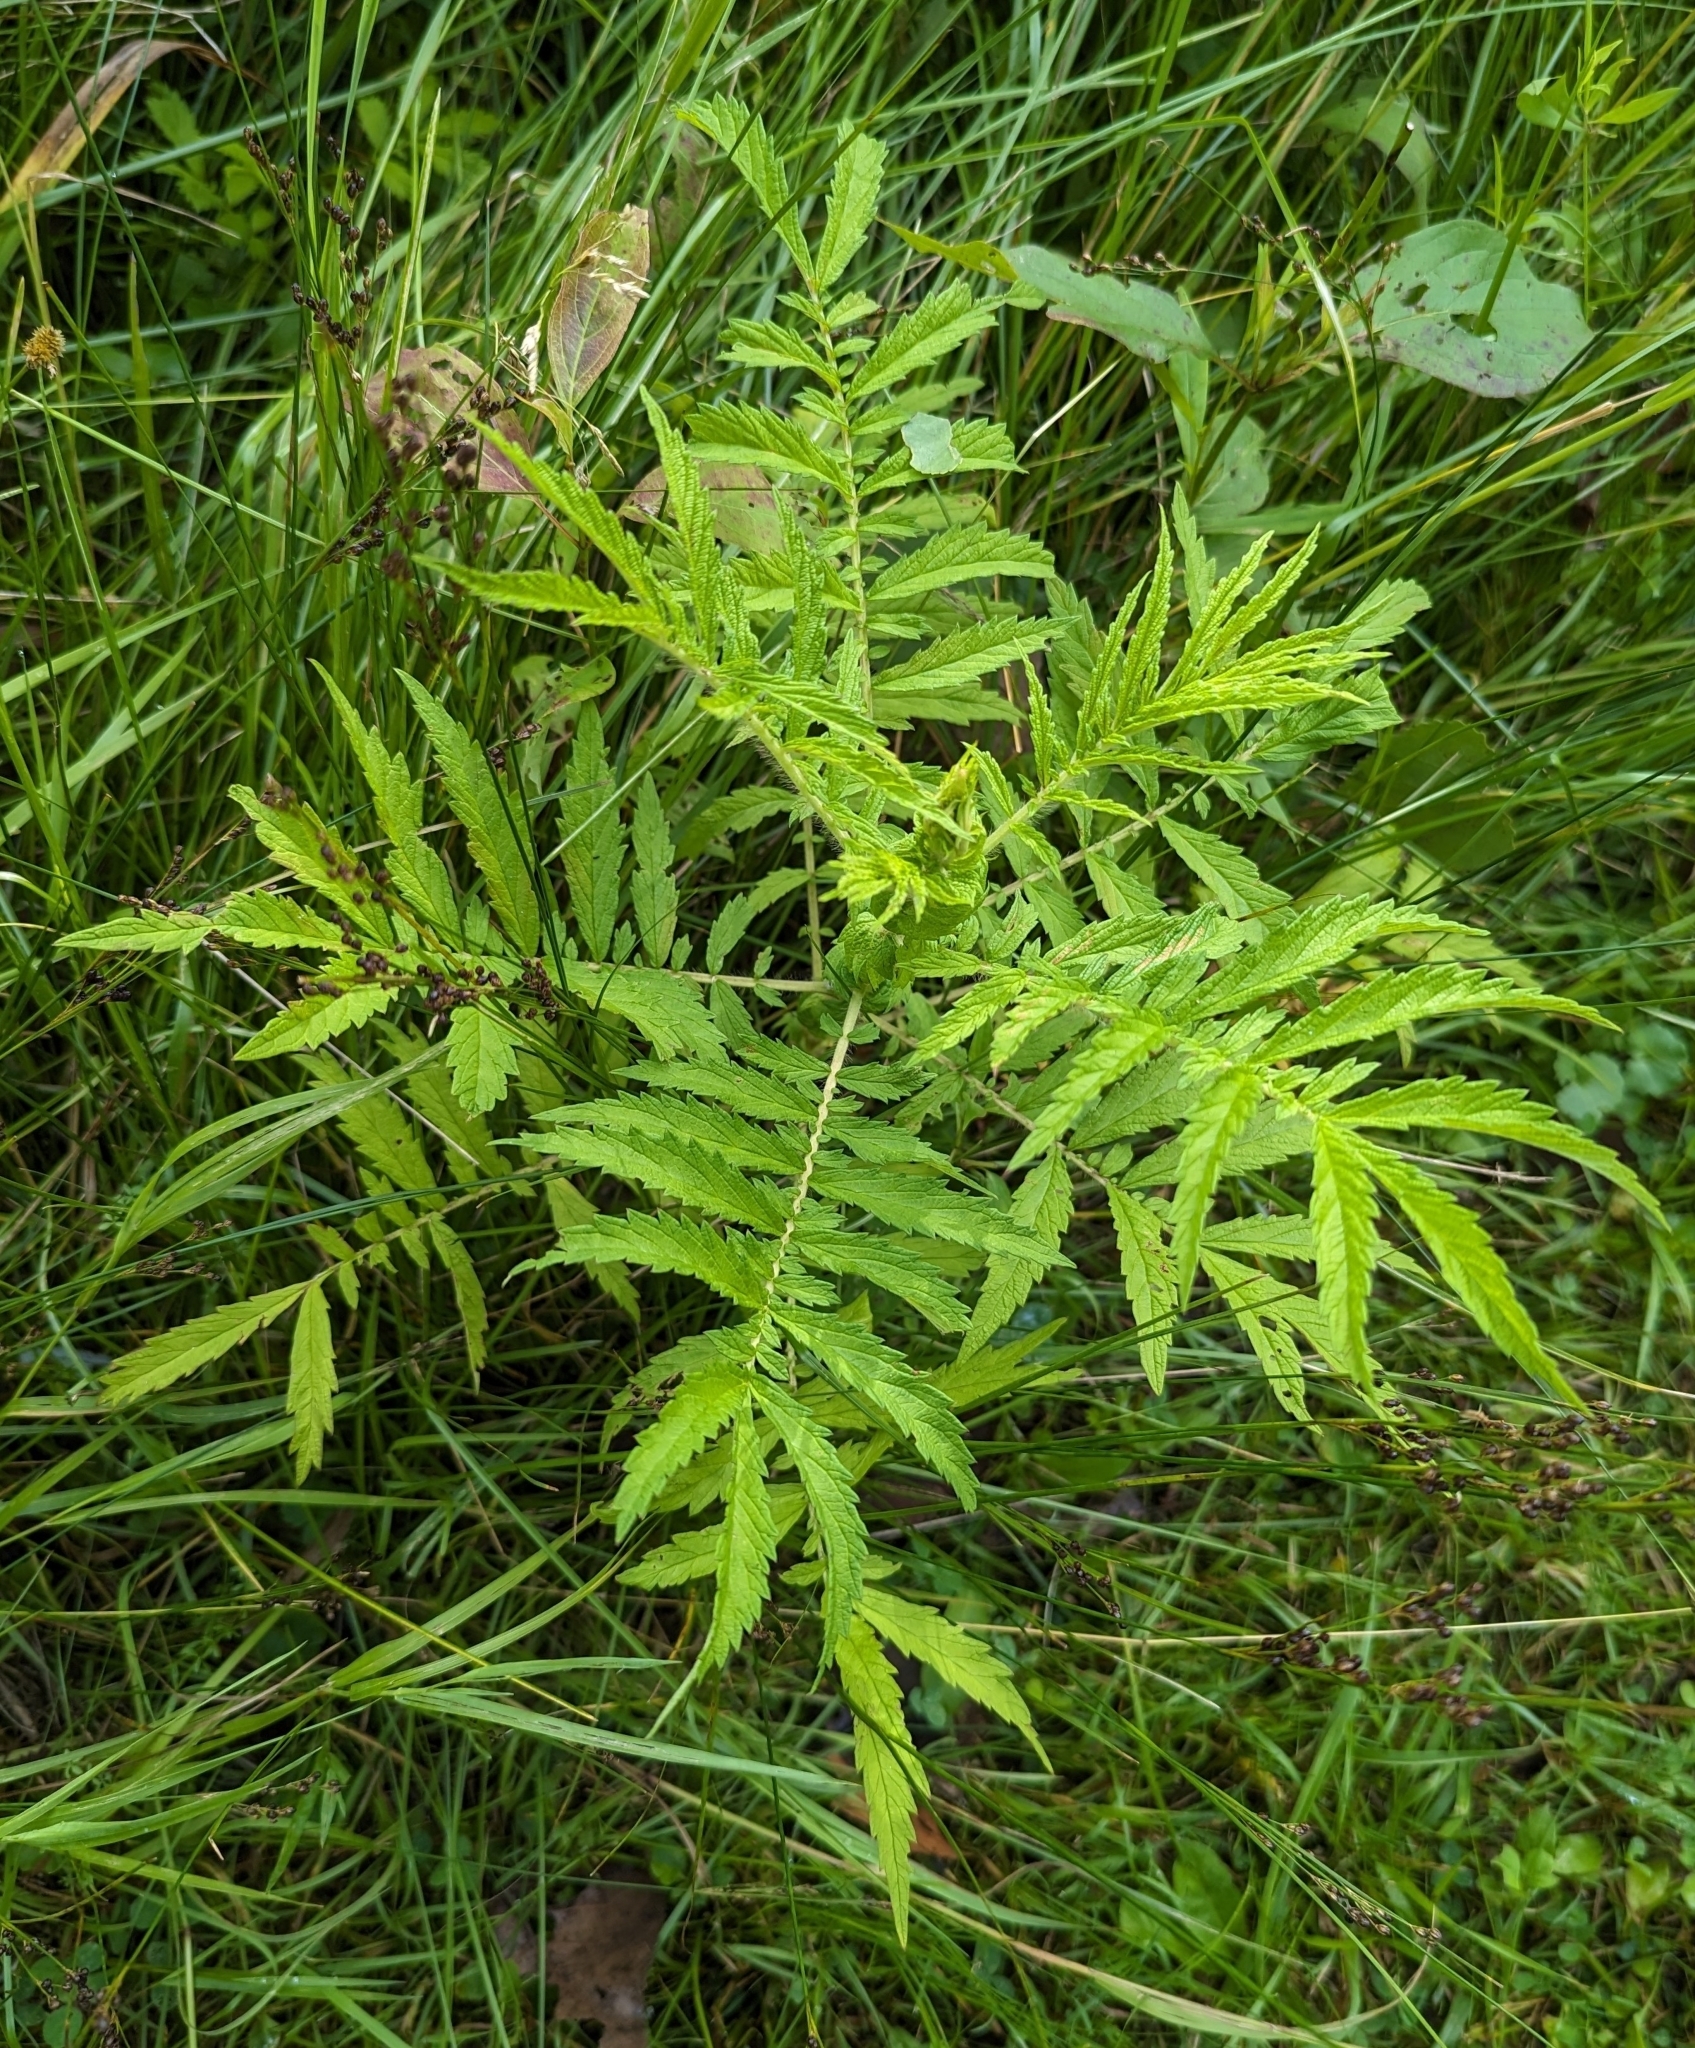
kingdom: Plantae
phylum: Tracheophyta
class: Magnoliopsida
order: Rosales
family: Rosaceae
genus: Agrimonia
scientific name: Agrimonia parviflora
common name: Harvest-lice
